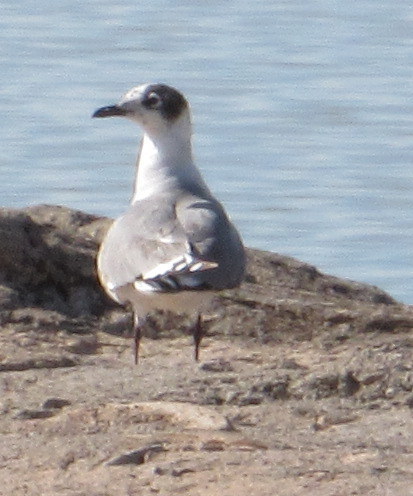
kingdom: Animalia
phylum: Chordata
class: Aves
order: Charadriiformes
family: Laridae
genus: Leucophaeus
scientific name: Leucophaeus pipixcan
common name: Franklin's gull
